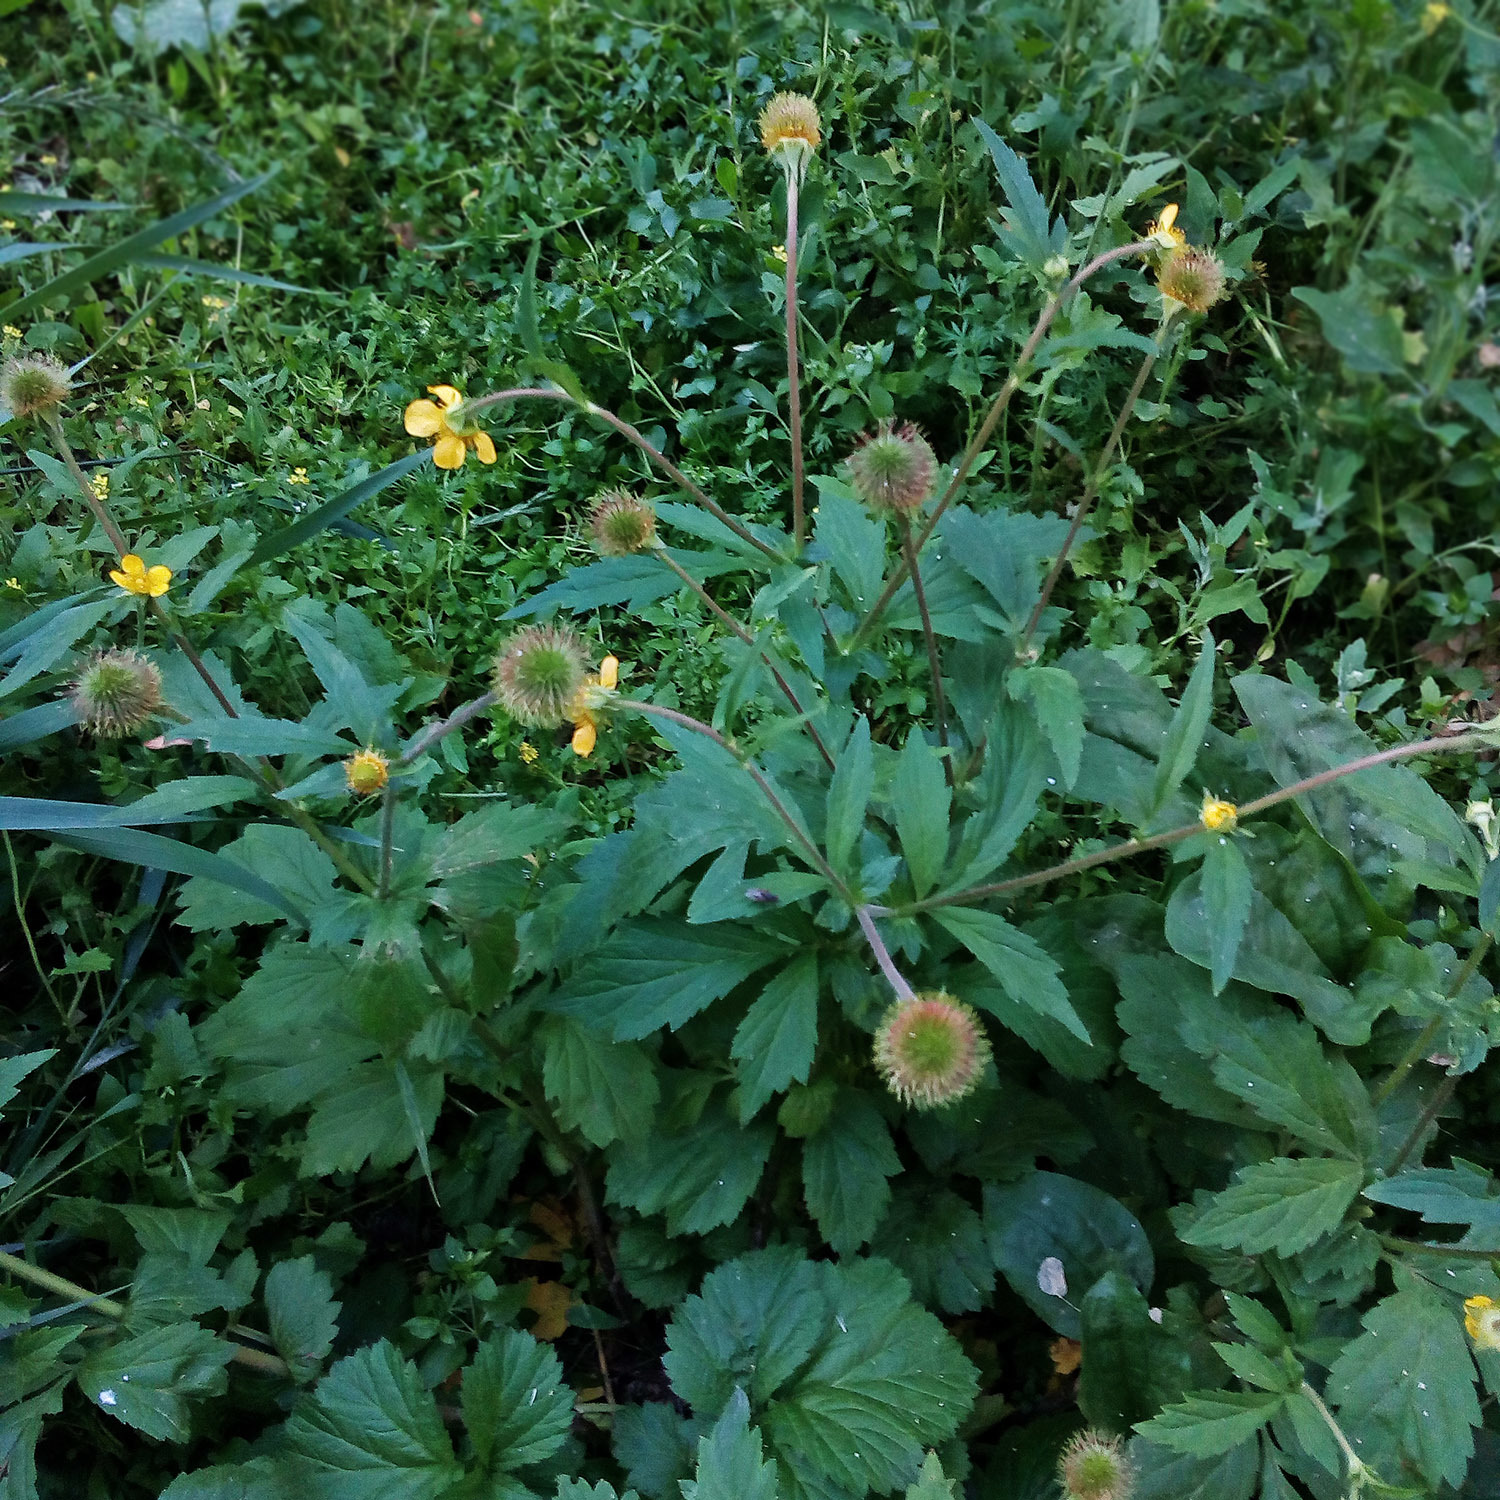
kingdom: Plantae
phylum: Tracheophyta
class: Magnoliopsida
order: Rosales
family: Rosaceae
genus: Geum
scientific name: Geum aleppicum
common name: Yellow avens
